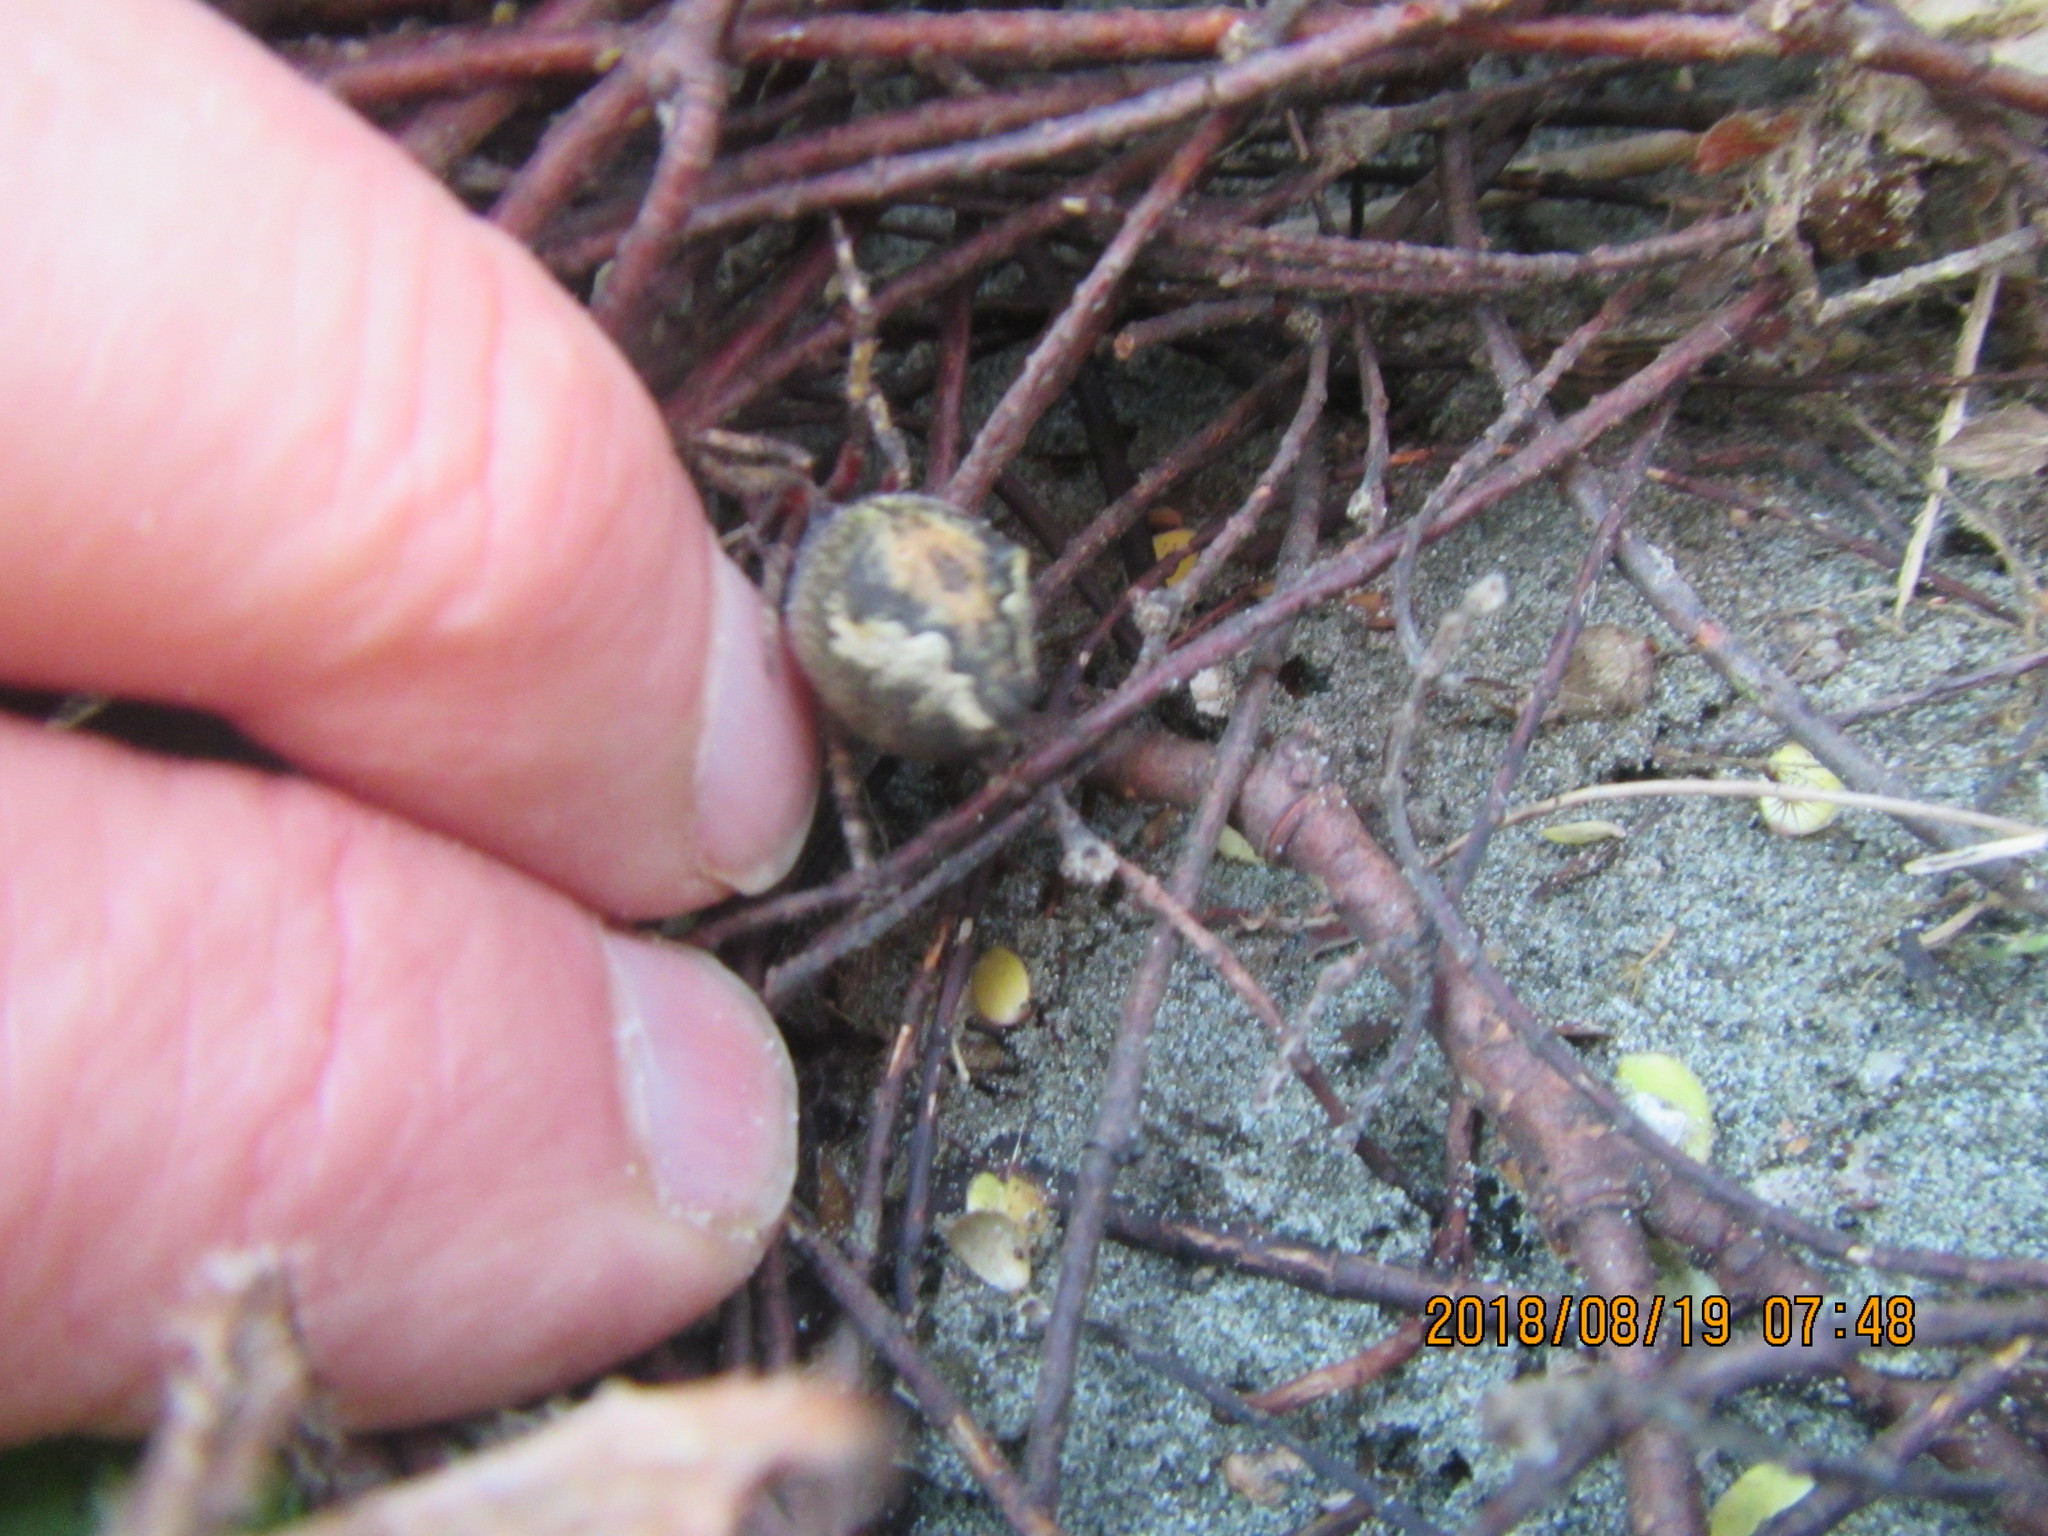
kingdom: Animalia
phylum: Arthropoda
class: Arachnida
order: Araneae
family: Araneidae
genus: Eriophora
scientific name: Eriophora pustulosa
